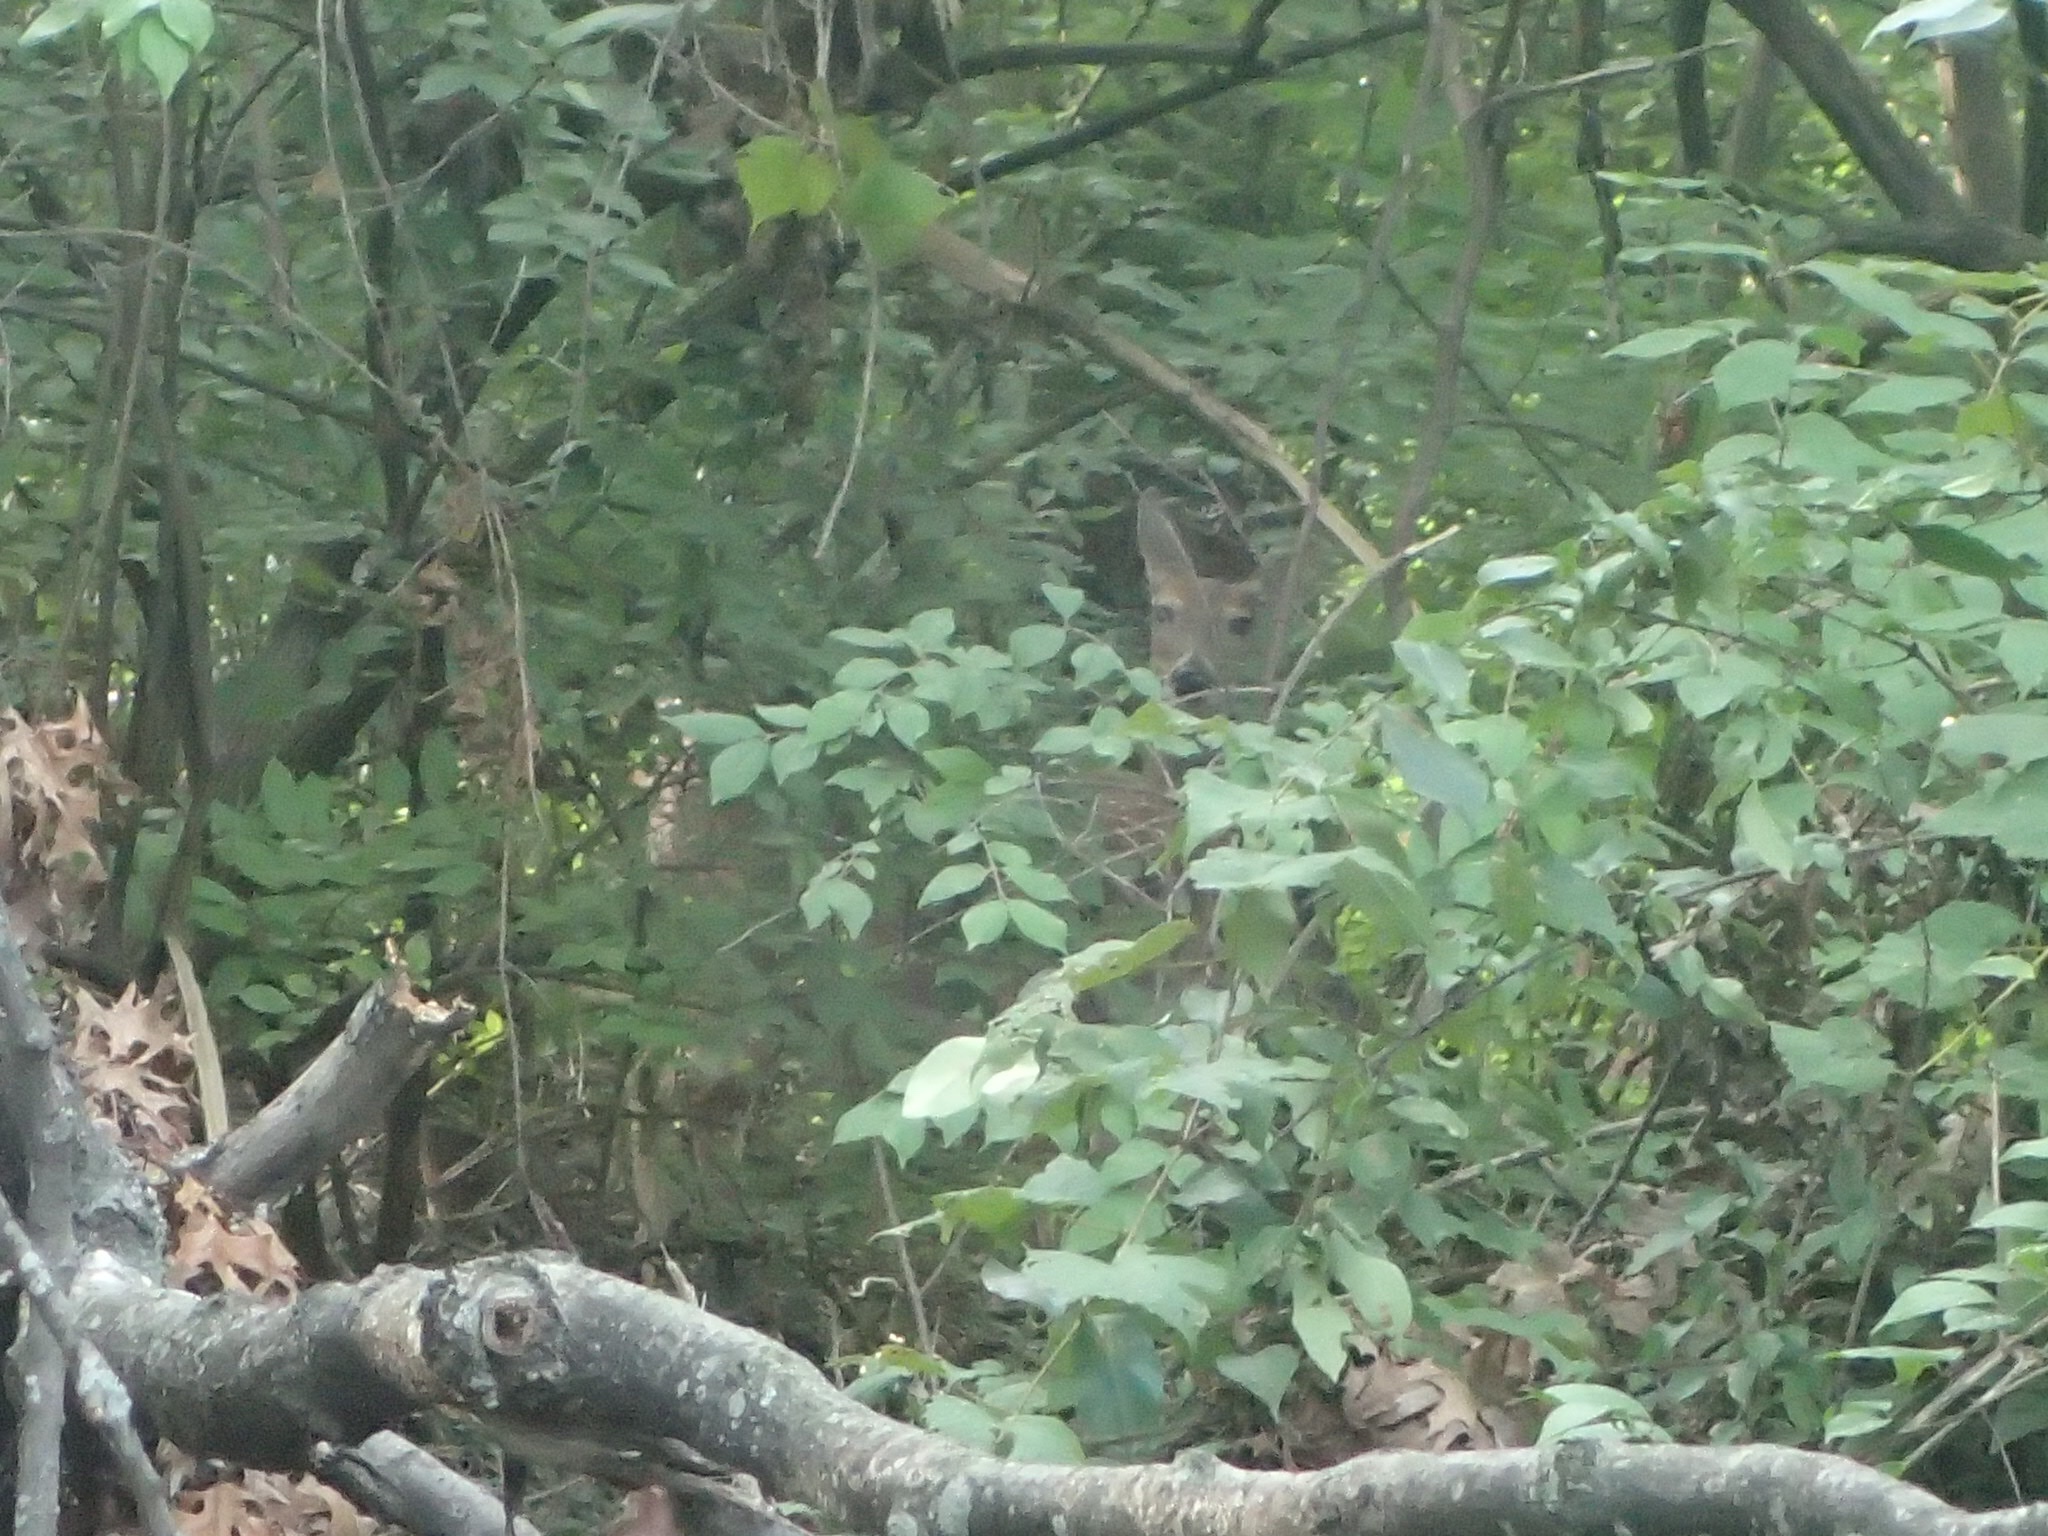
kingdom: Animalia
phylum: Chordata
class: Mammalia
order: Artiodactyla
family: Cervidae
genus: Odocoileus
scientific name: Odocoileus virginianus
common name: White-tailed deer
